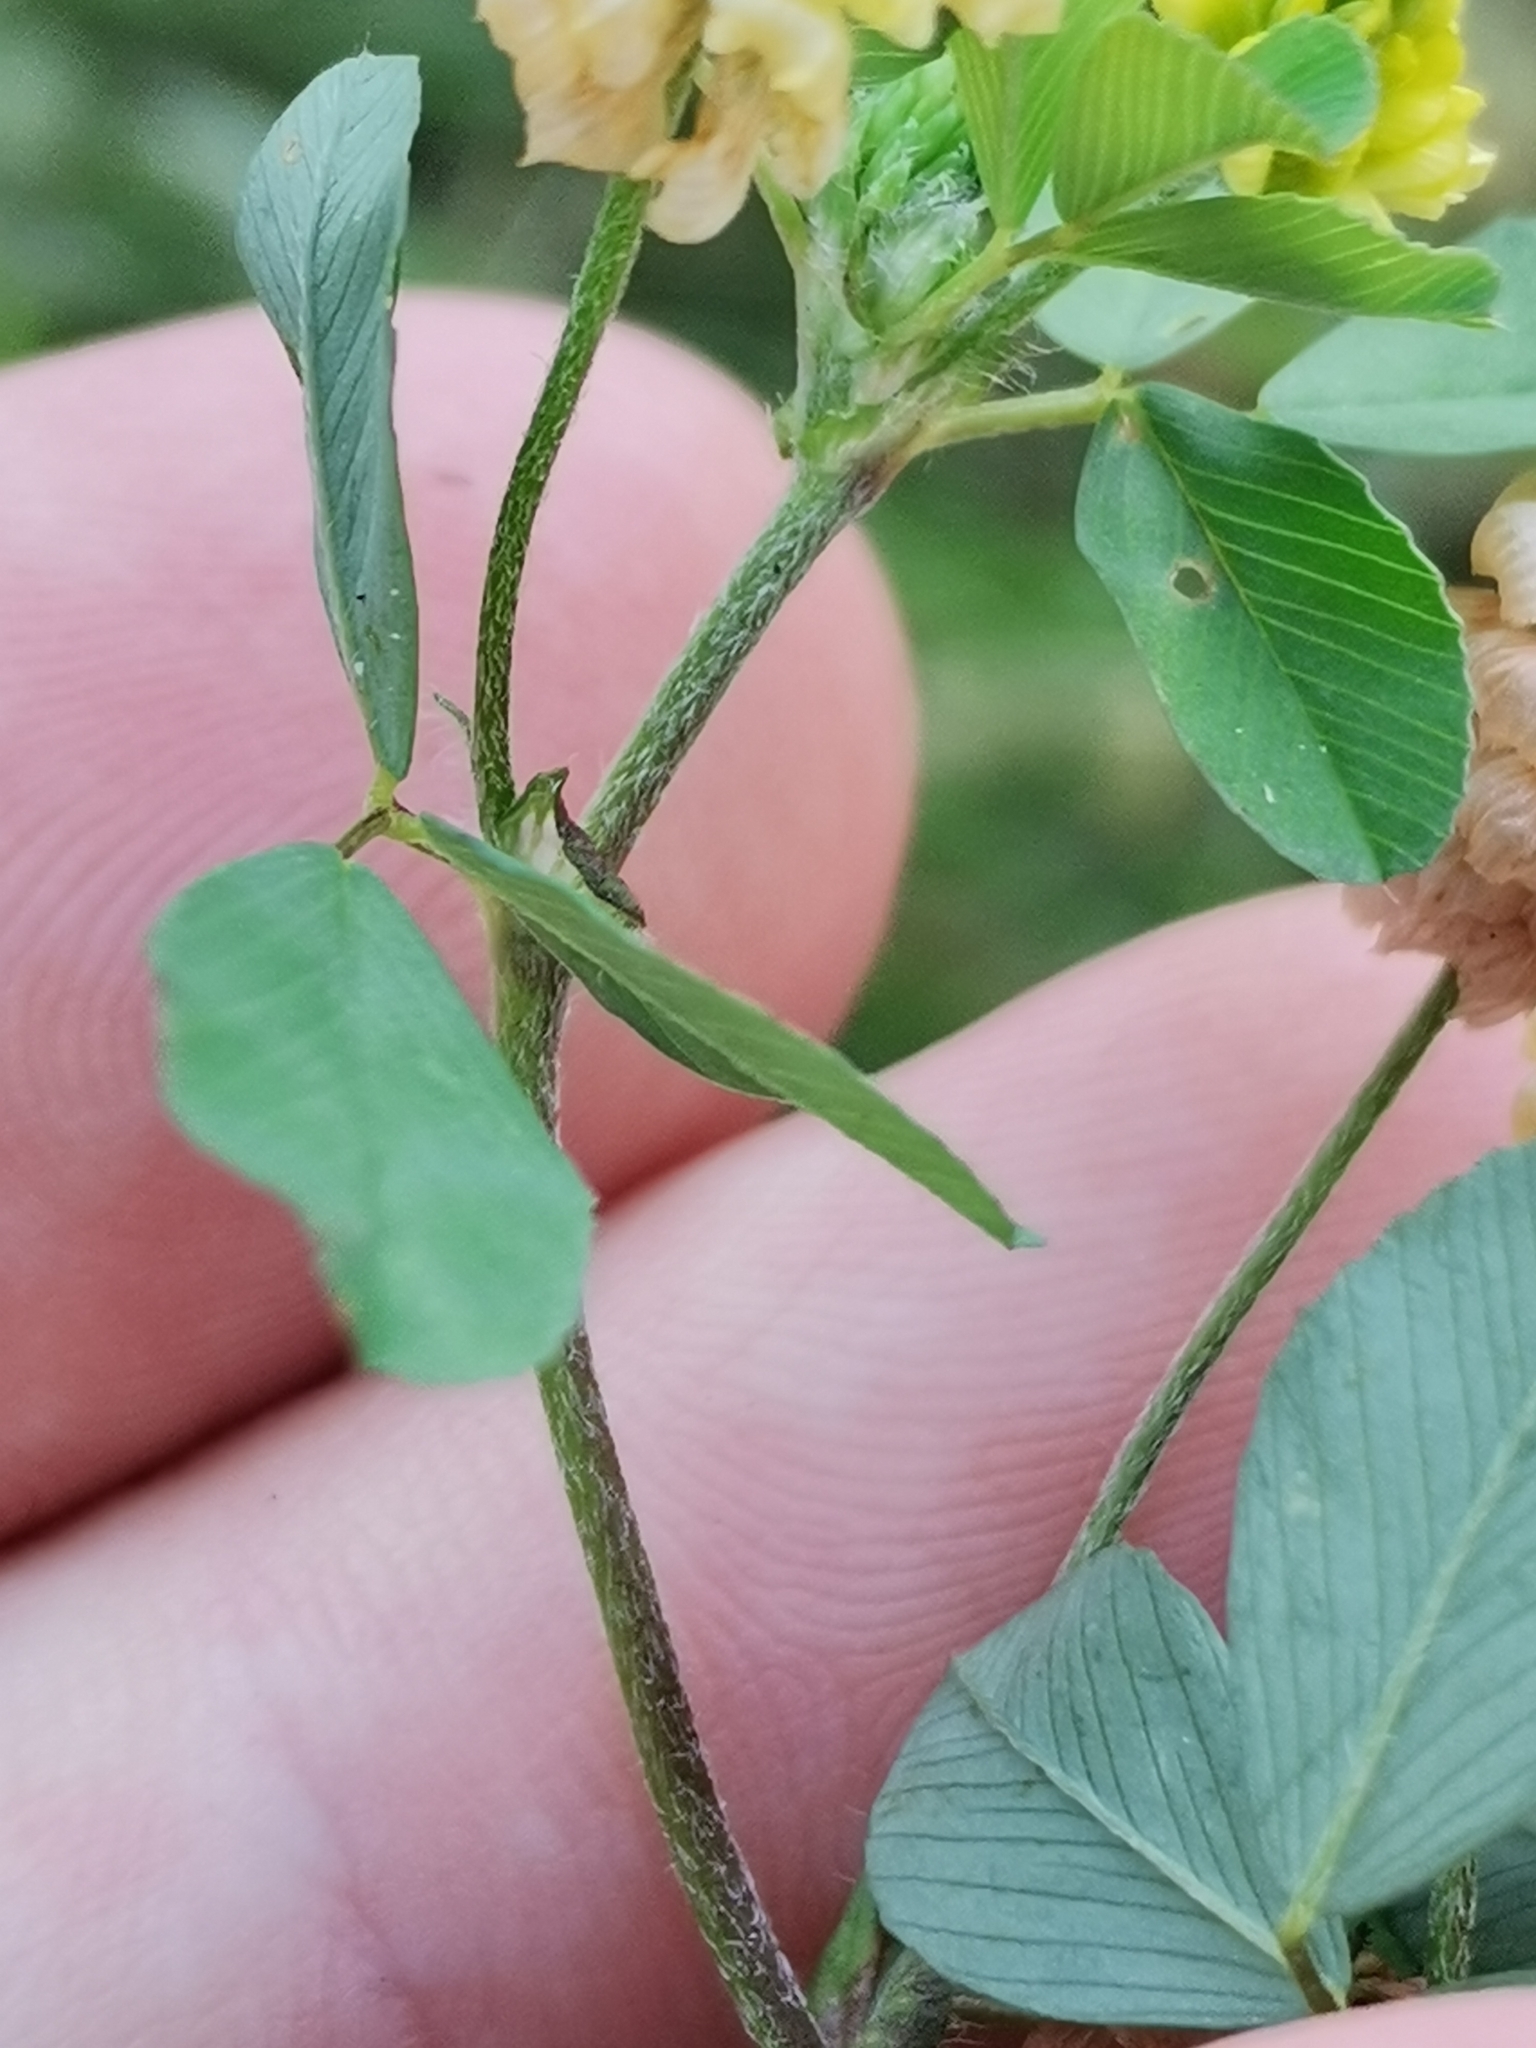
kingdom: Plantae
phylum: Tracheophyta
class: Magnoliopsida
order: Fabales
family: Fabaceae
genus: Trifolium
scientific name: Trifolium campestre
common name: Field clover
